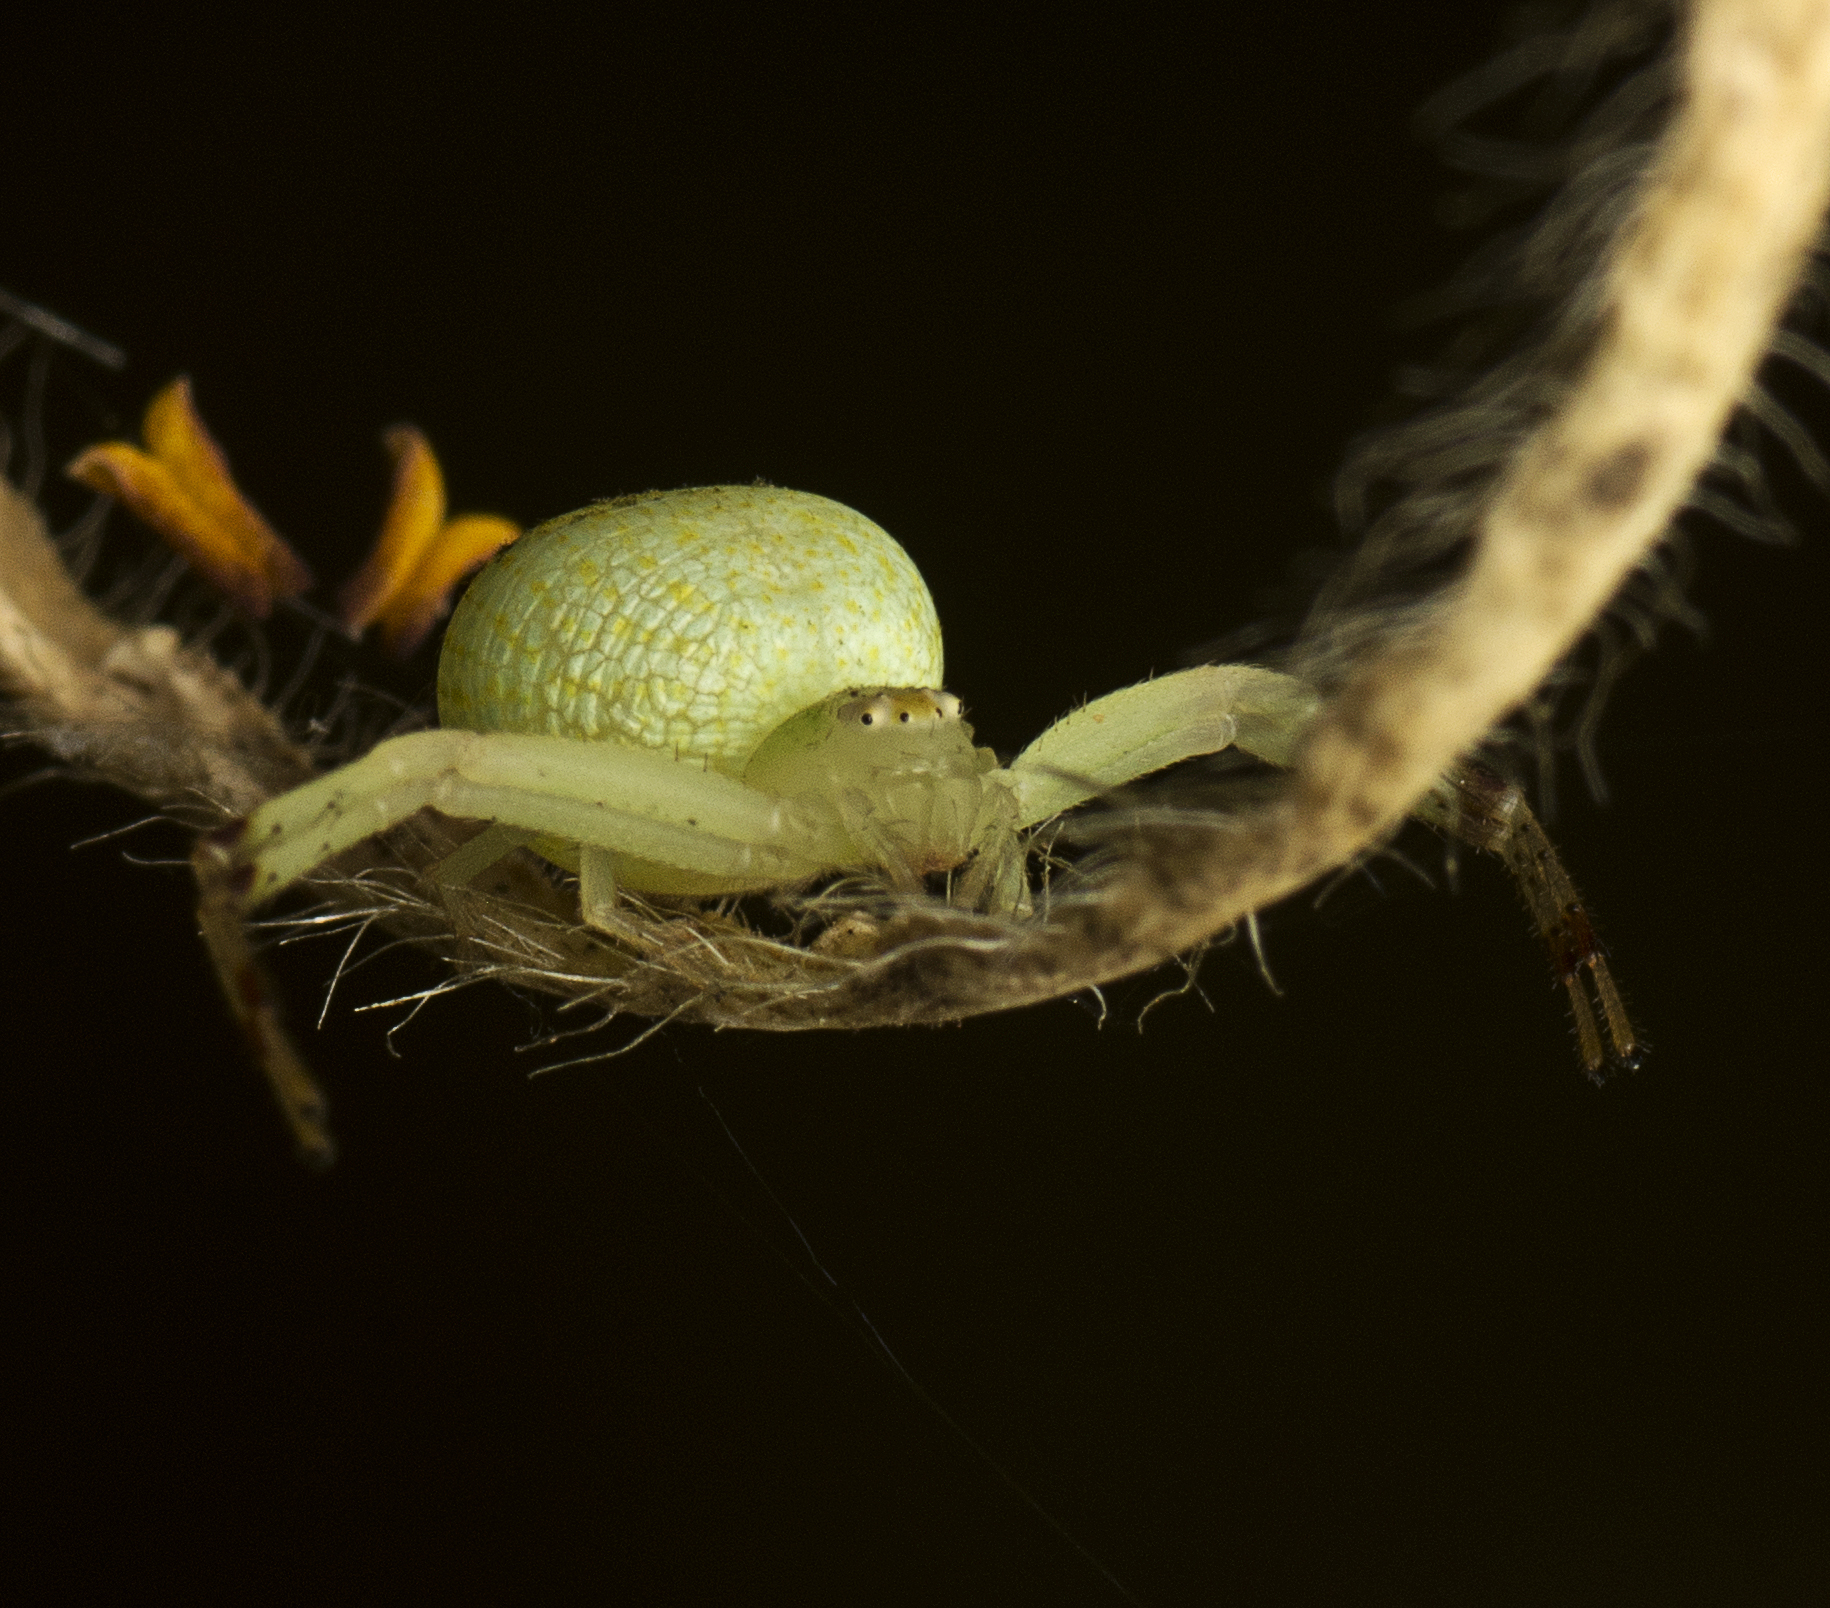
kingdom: Animalia
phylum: Arthropoda
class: Arachnida
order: Araneae
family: Thomisidae
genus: Boomerangiana
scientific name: Boomerangiana dimidiata
